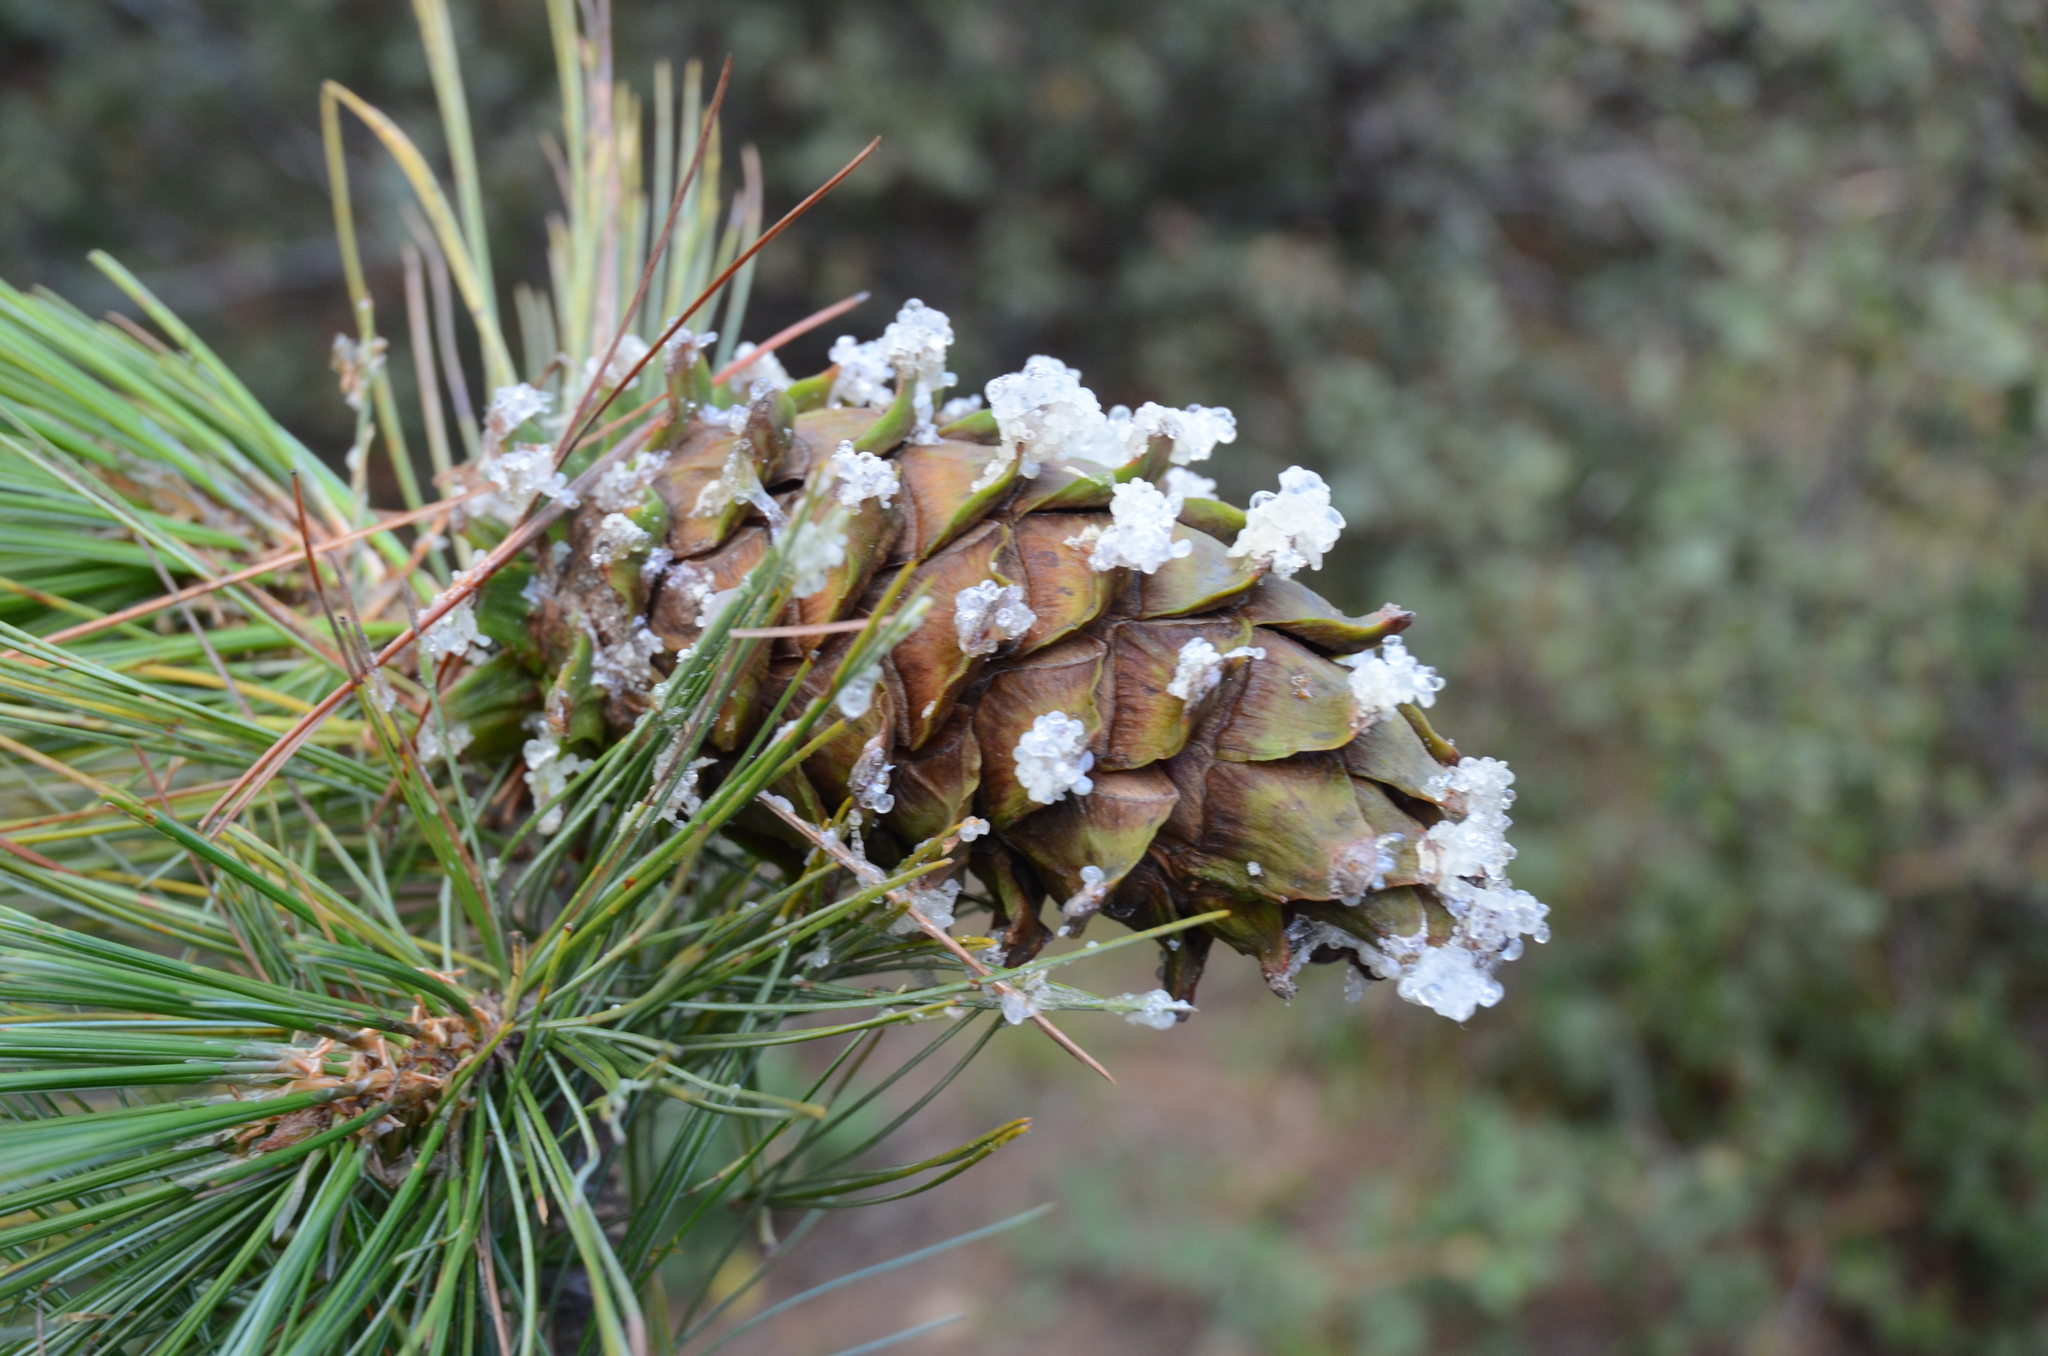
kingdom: Plantae
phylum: Tracheophyta
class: Pinopsida
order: Pinales
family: Pinaceae
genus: Pinus
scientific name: Pinus flexilis
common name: Limber pine
